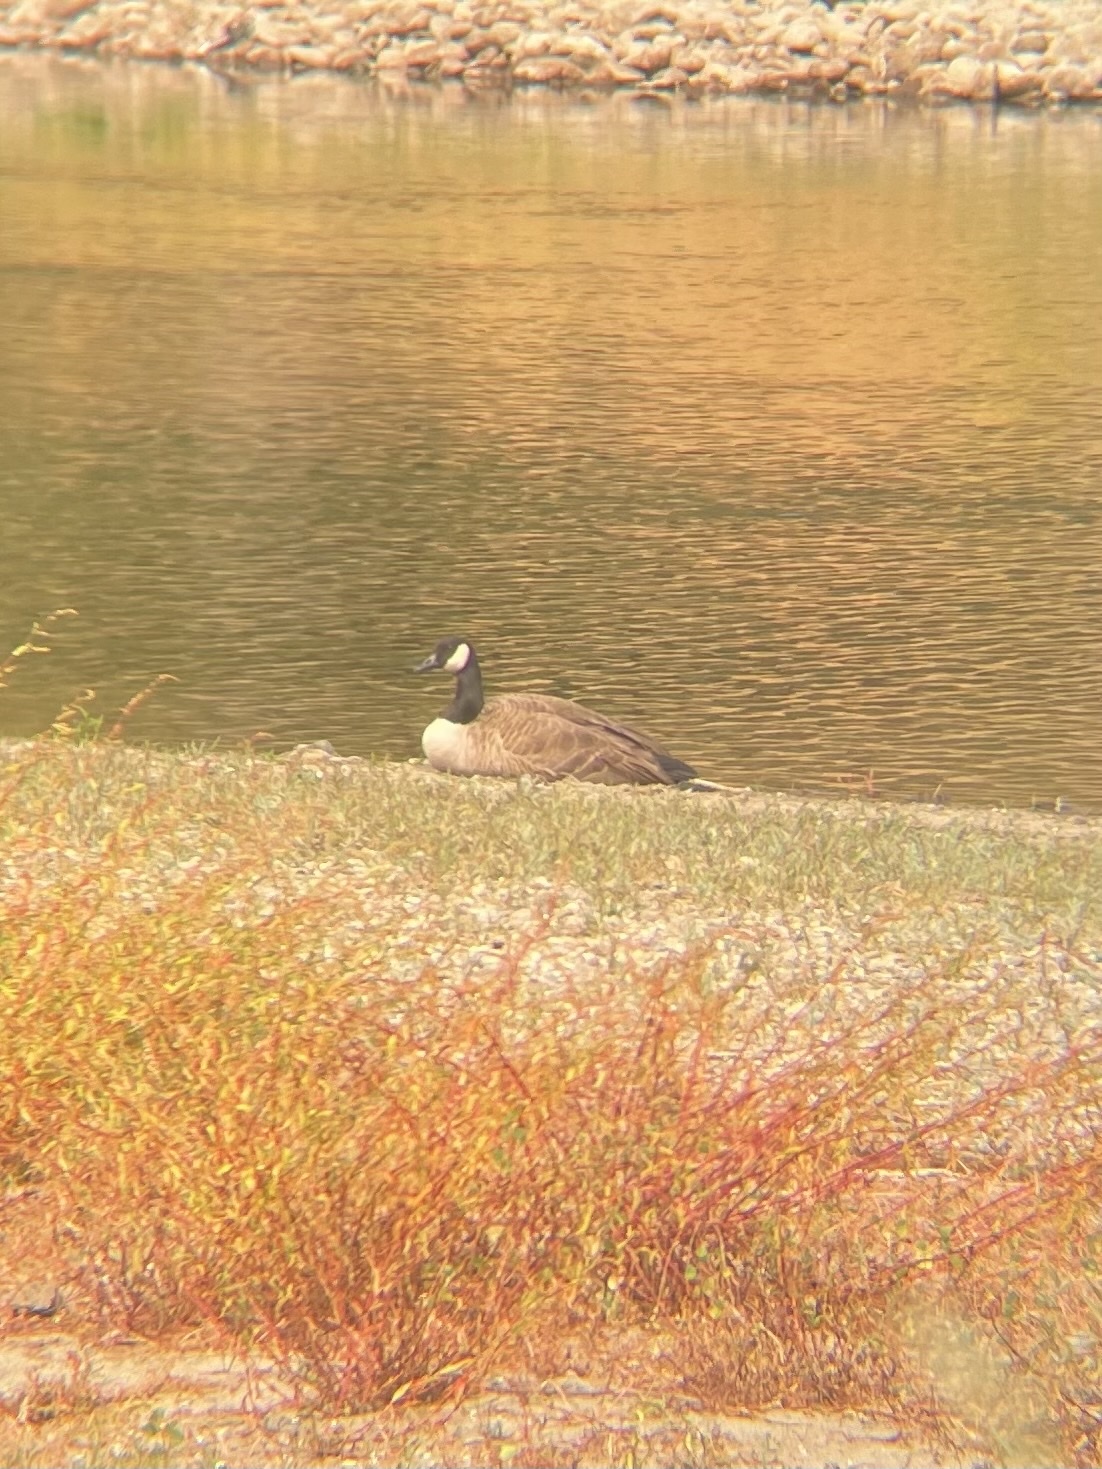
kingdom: Animalia
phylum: Chordata
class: Aves
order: Anseriformes
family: Anatidae
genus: Branta
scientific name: Branta canadensis
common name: Canada goose
